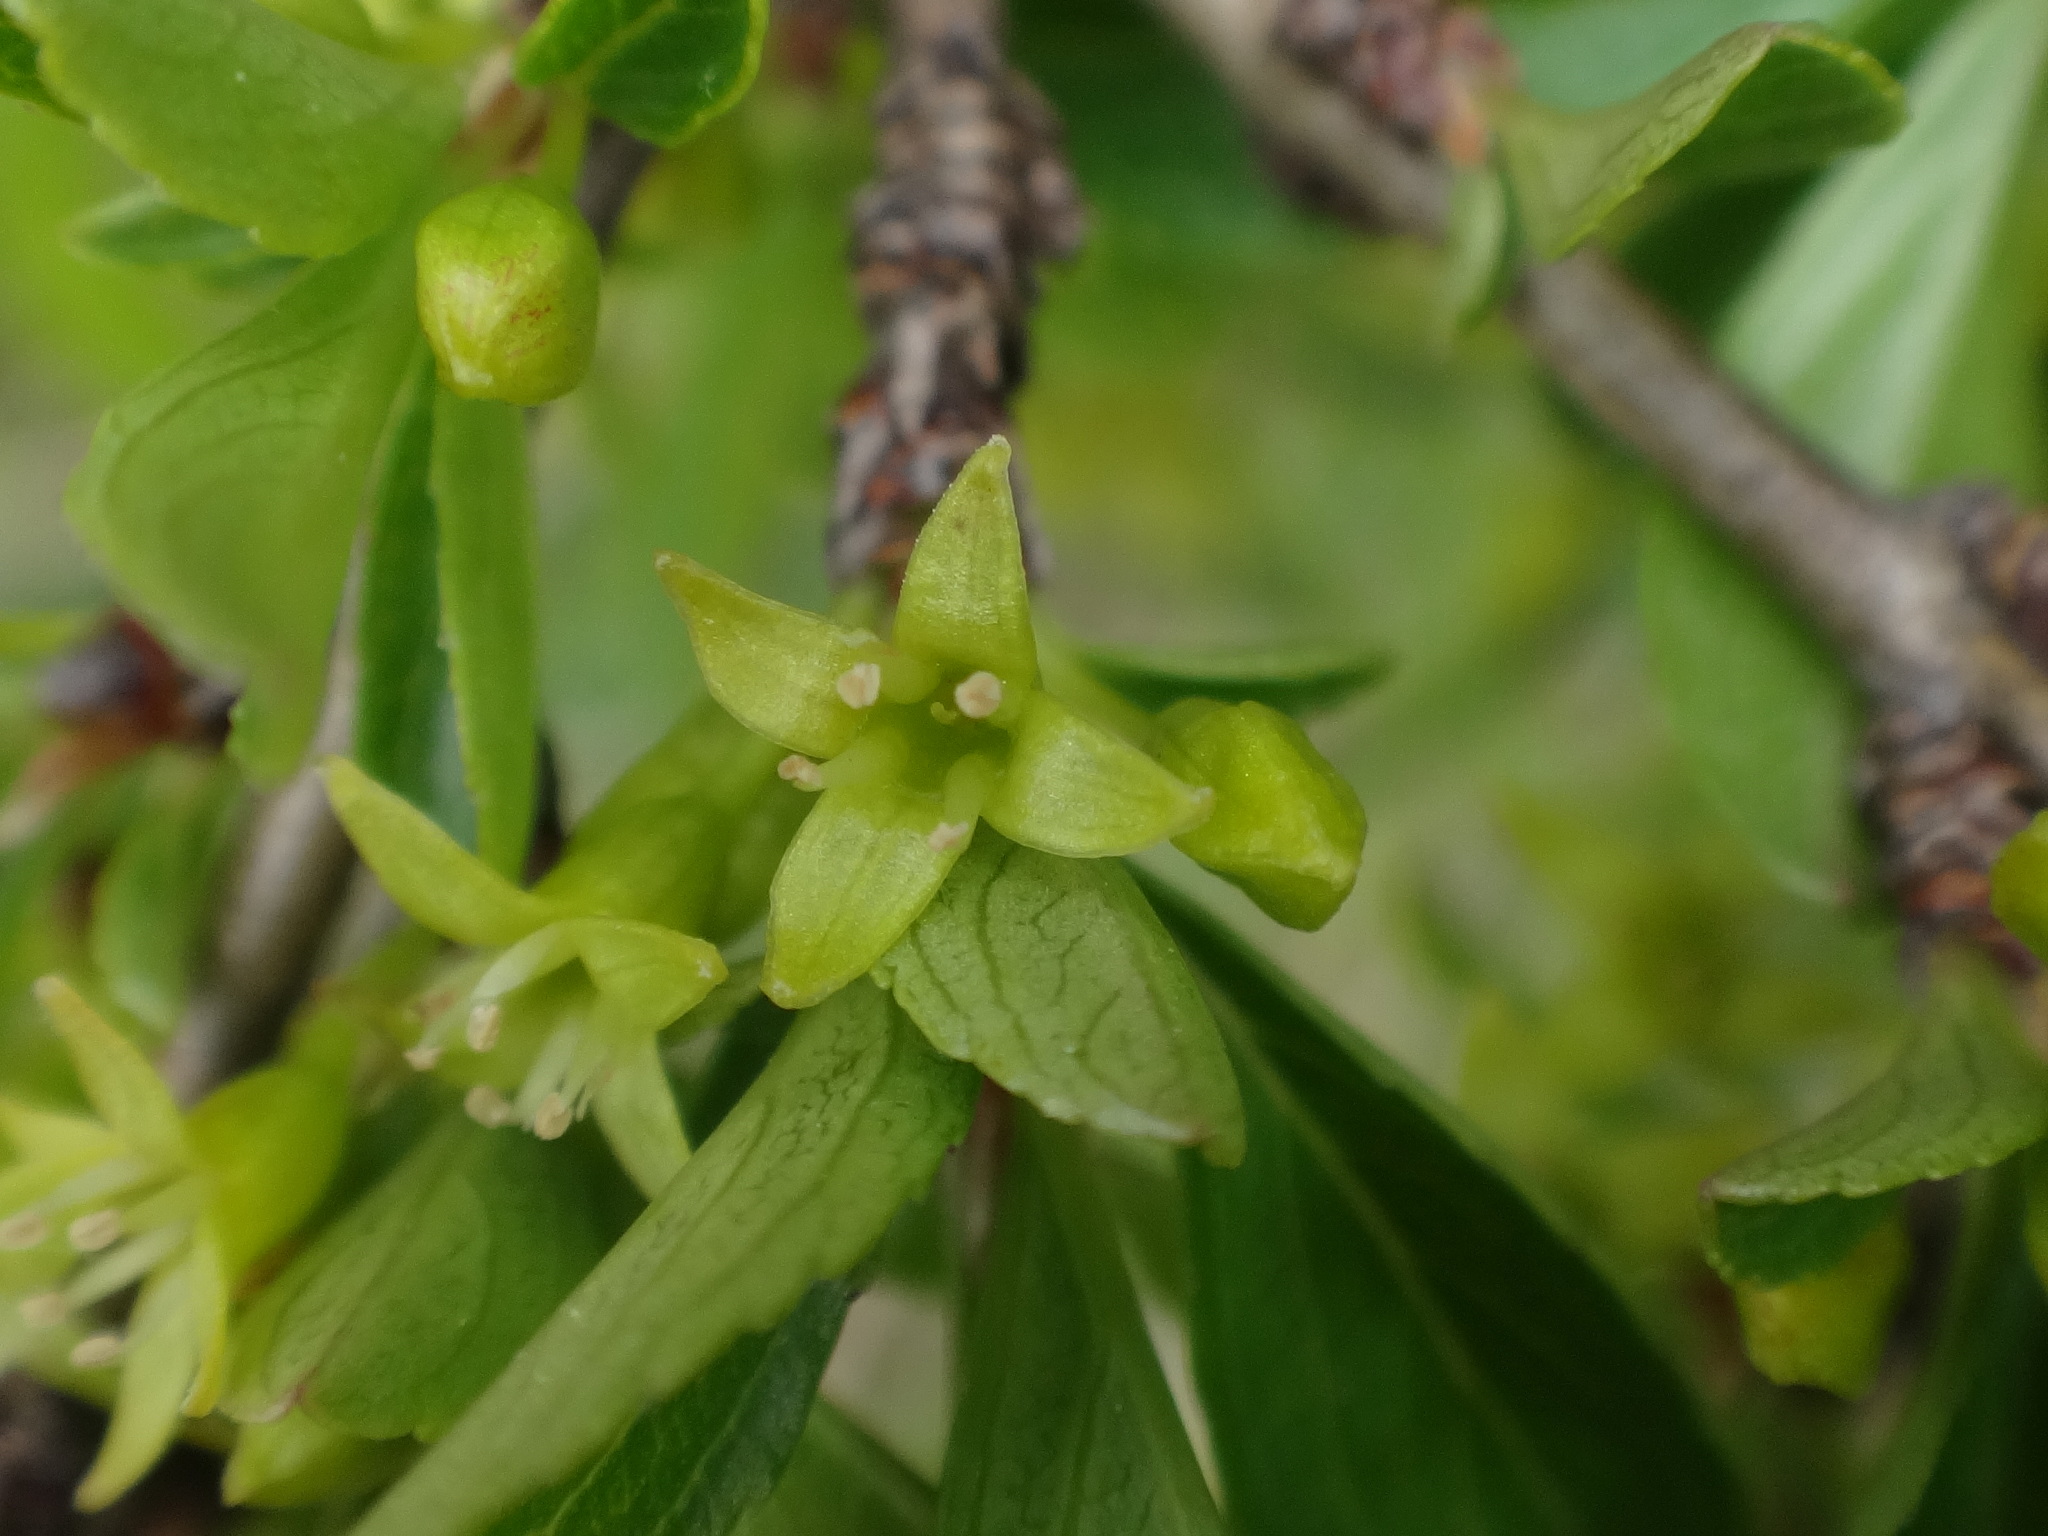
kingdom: Plantae
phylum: Tracheophyta
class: Magnoliopsida
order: Rosales
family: Rhamnaceae
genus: Rhamnus
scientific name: Rhamnus saxatilis
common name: Rock buckthorn
